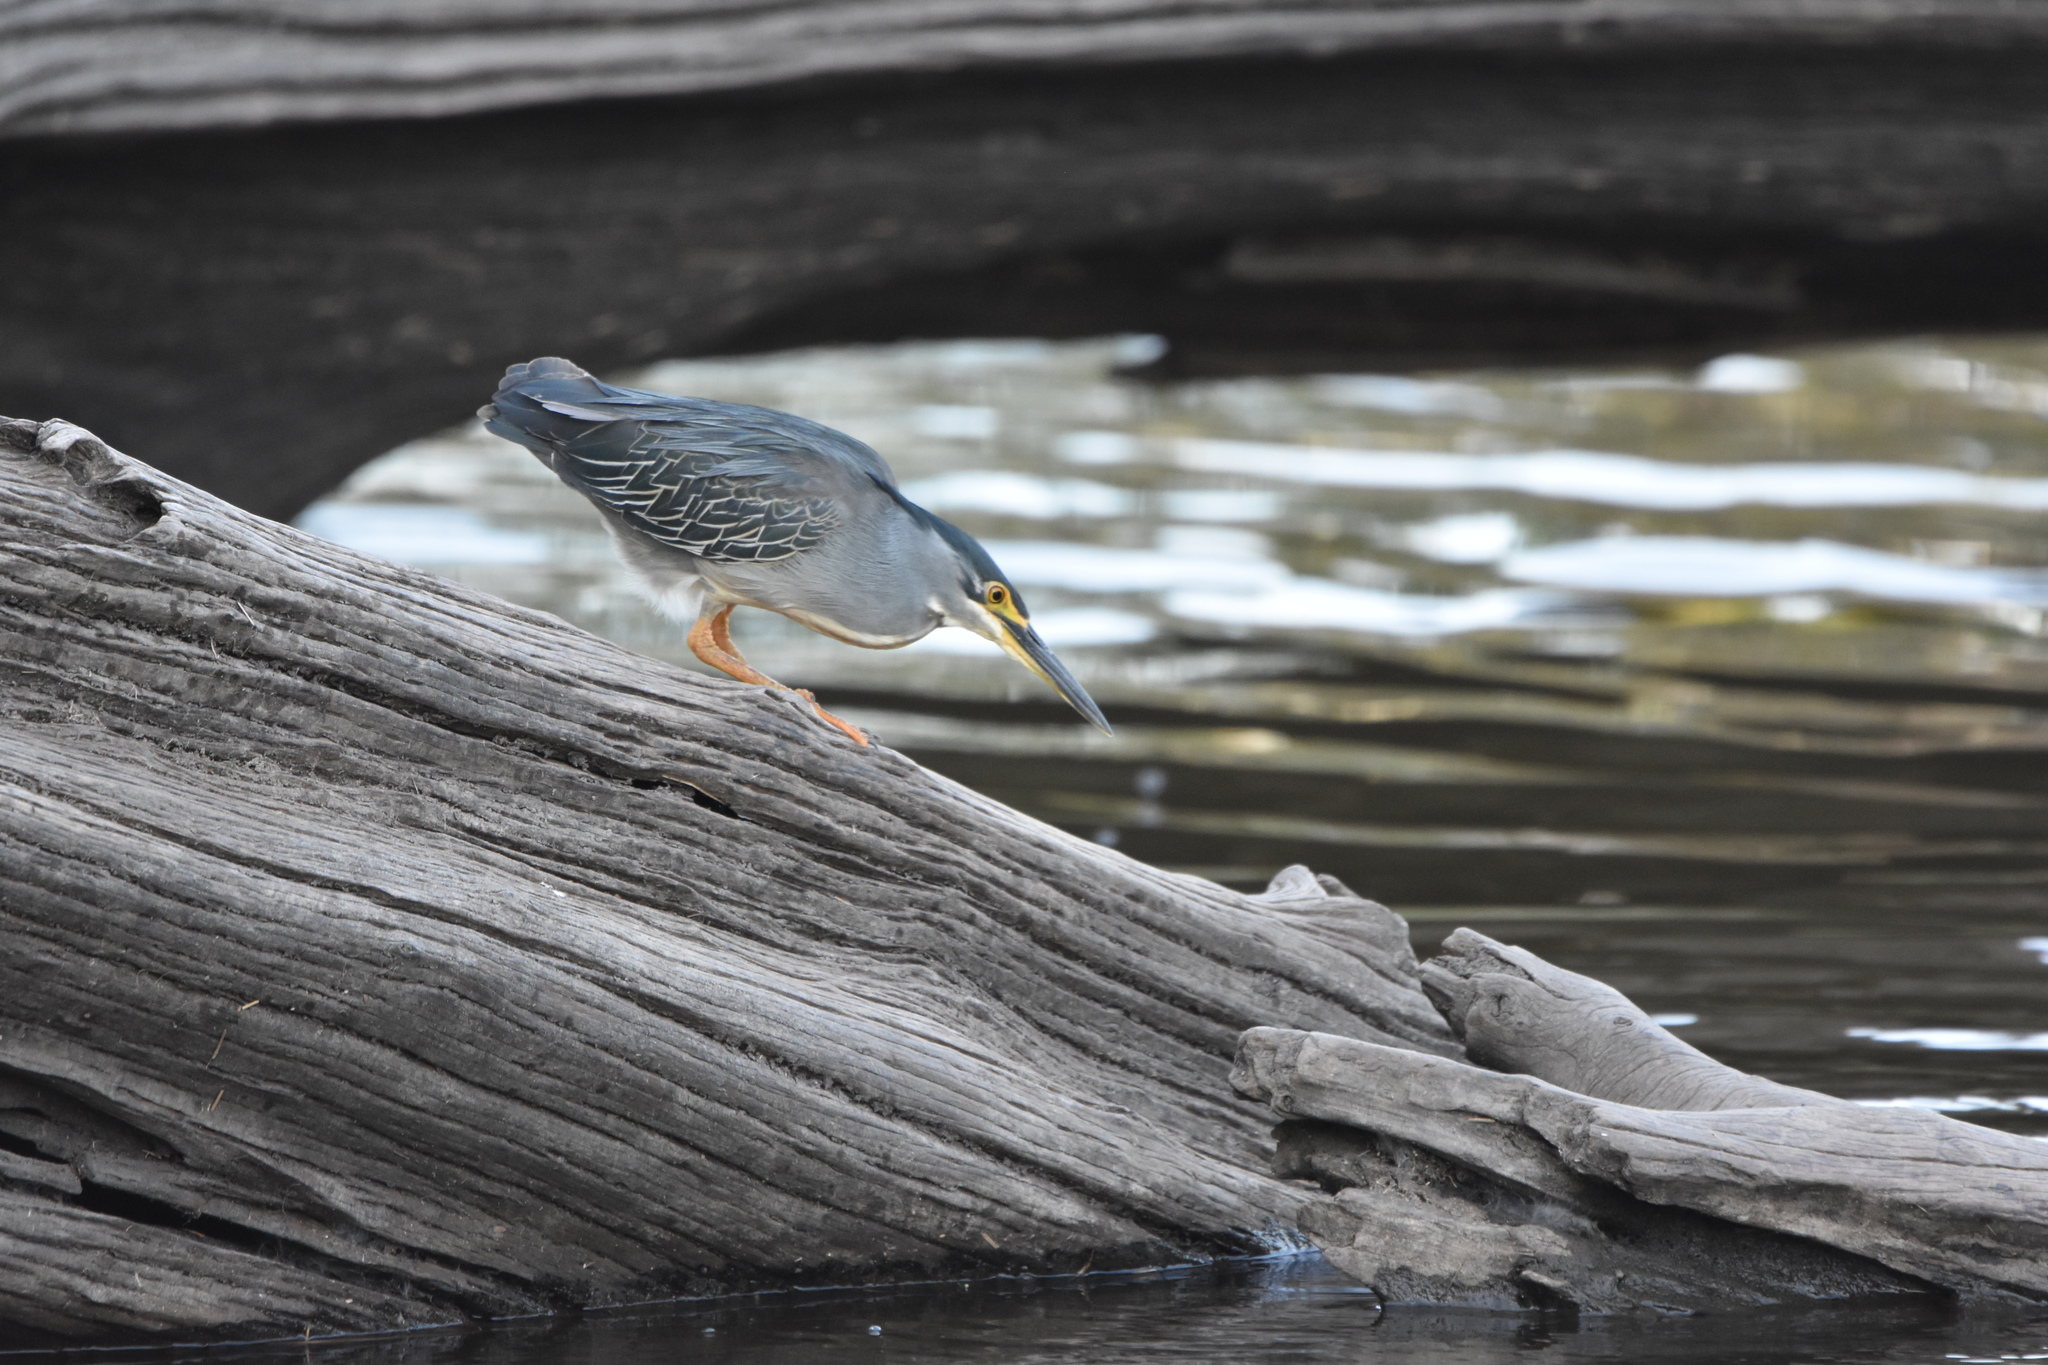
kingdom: Animalia
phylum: Chordata
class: Aves
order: Pelecaniformes
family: Ardeidae
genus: Butorides
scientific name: Butorides striata
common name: Striated heron
